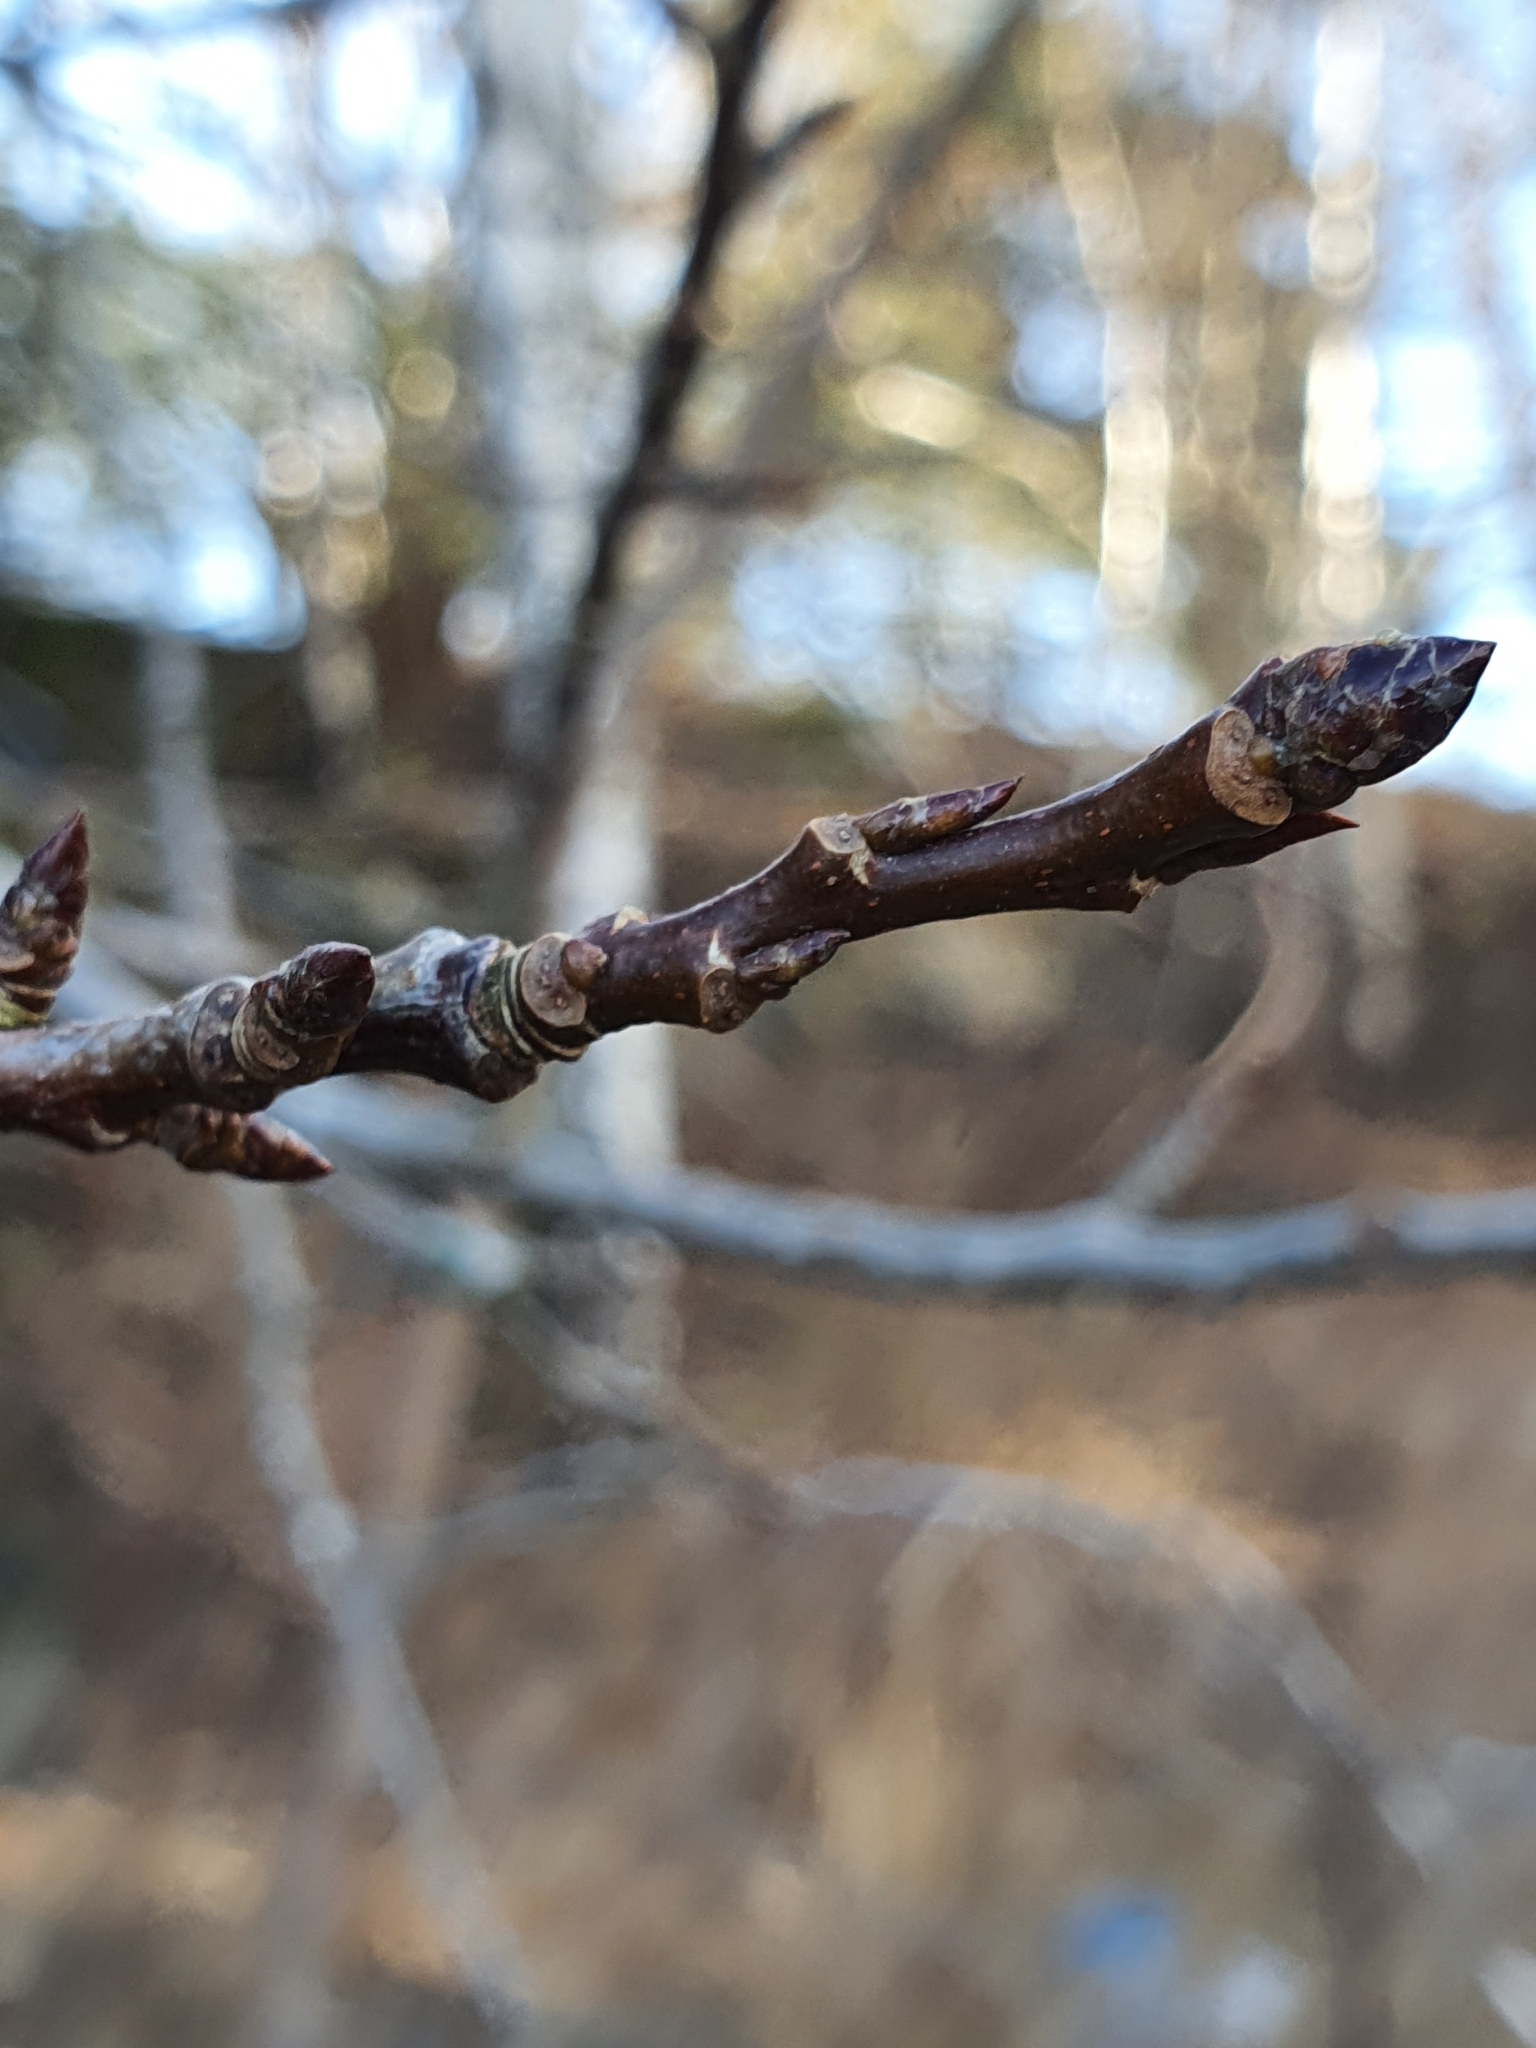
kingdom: Plantae
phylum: Tracheophyta
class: Magnoliopsida
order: Malpighiales
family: Salicaceae
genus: Populus
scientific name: Populus tremula
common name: European aspen
